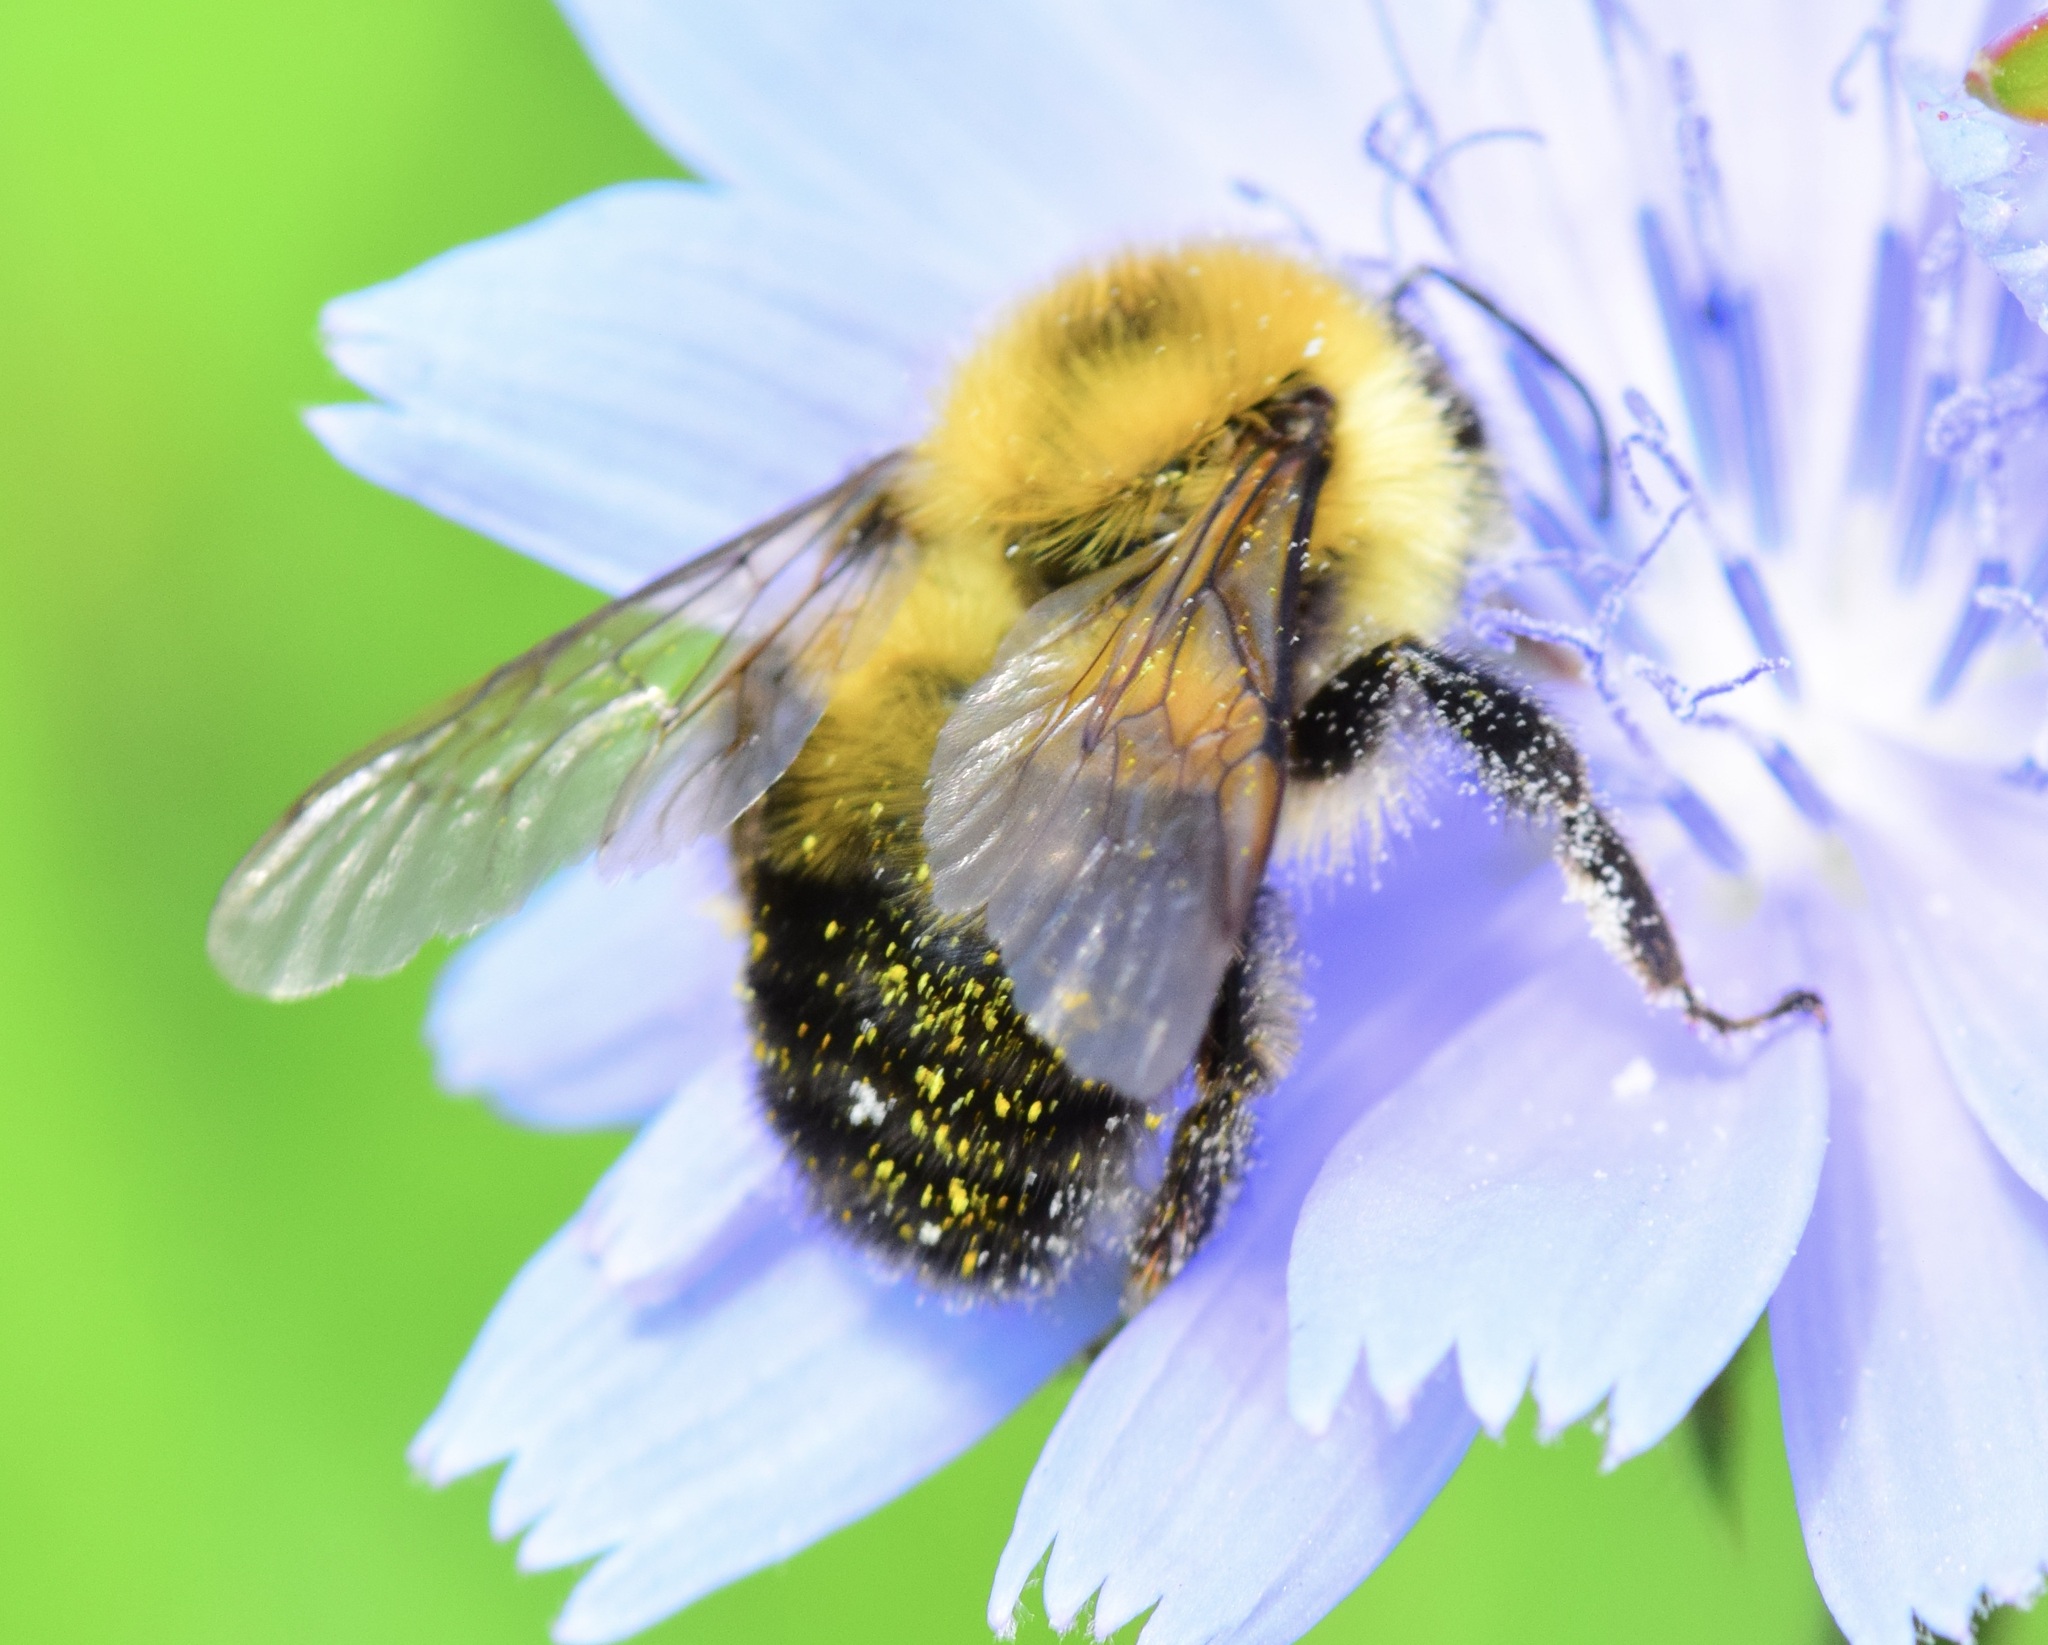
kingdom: Animalia
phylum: Arthropoda
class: Insecta
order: Hymenoptera
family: Apidae
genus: Bombus
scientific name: Bombus bimaculatus
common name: Two-spotted bumble bee
